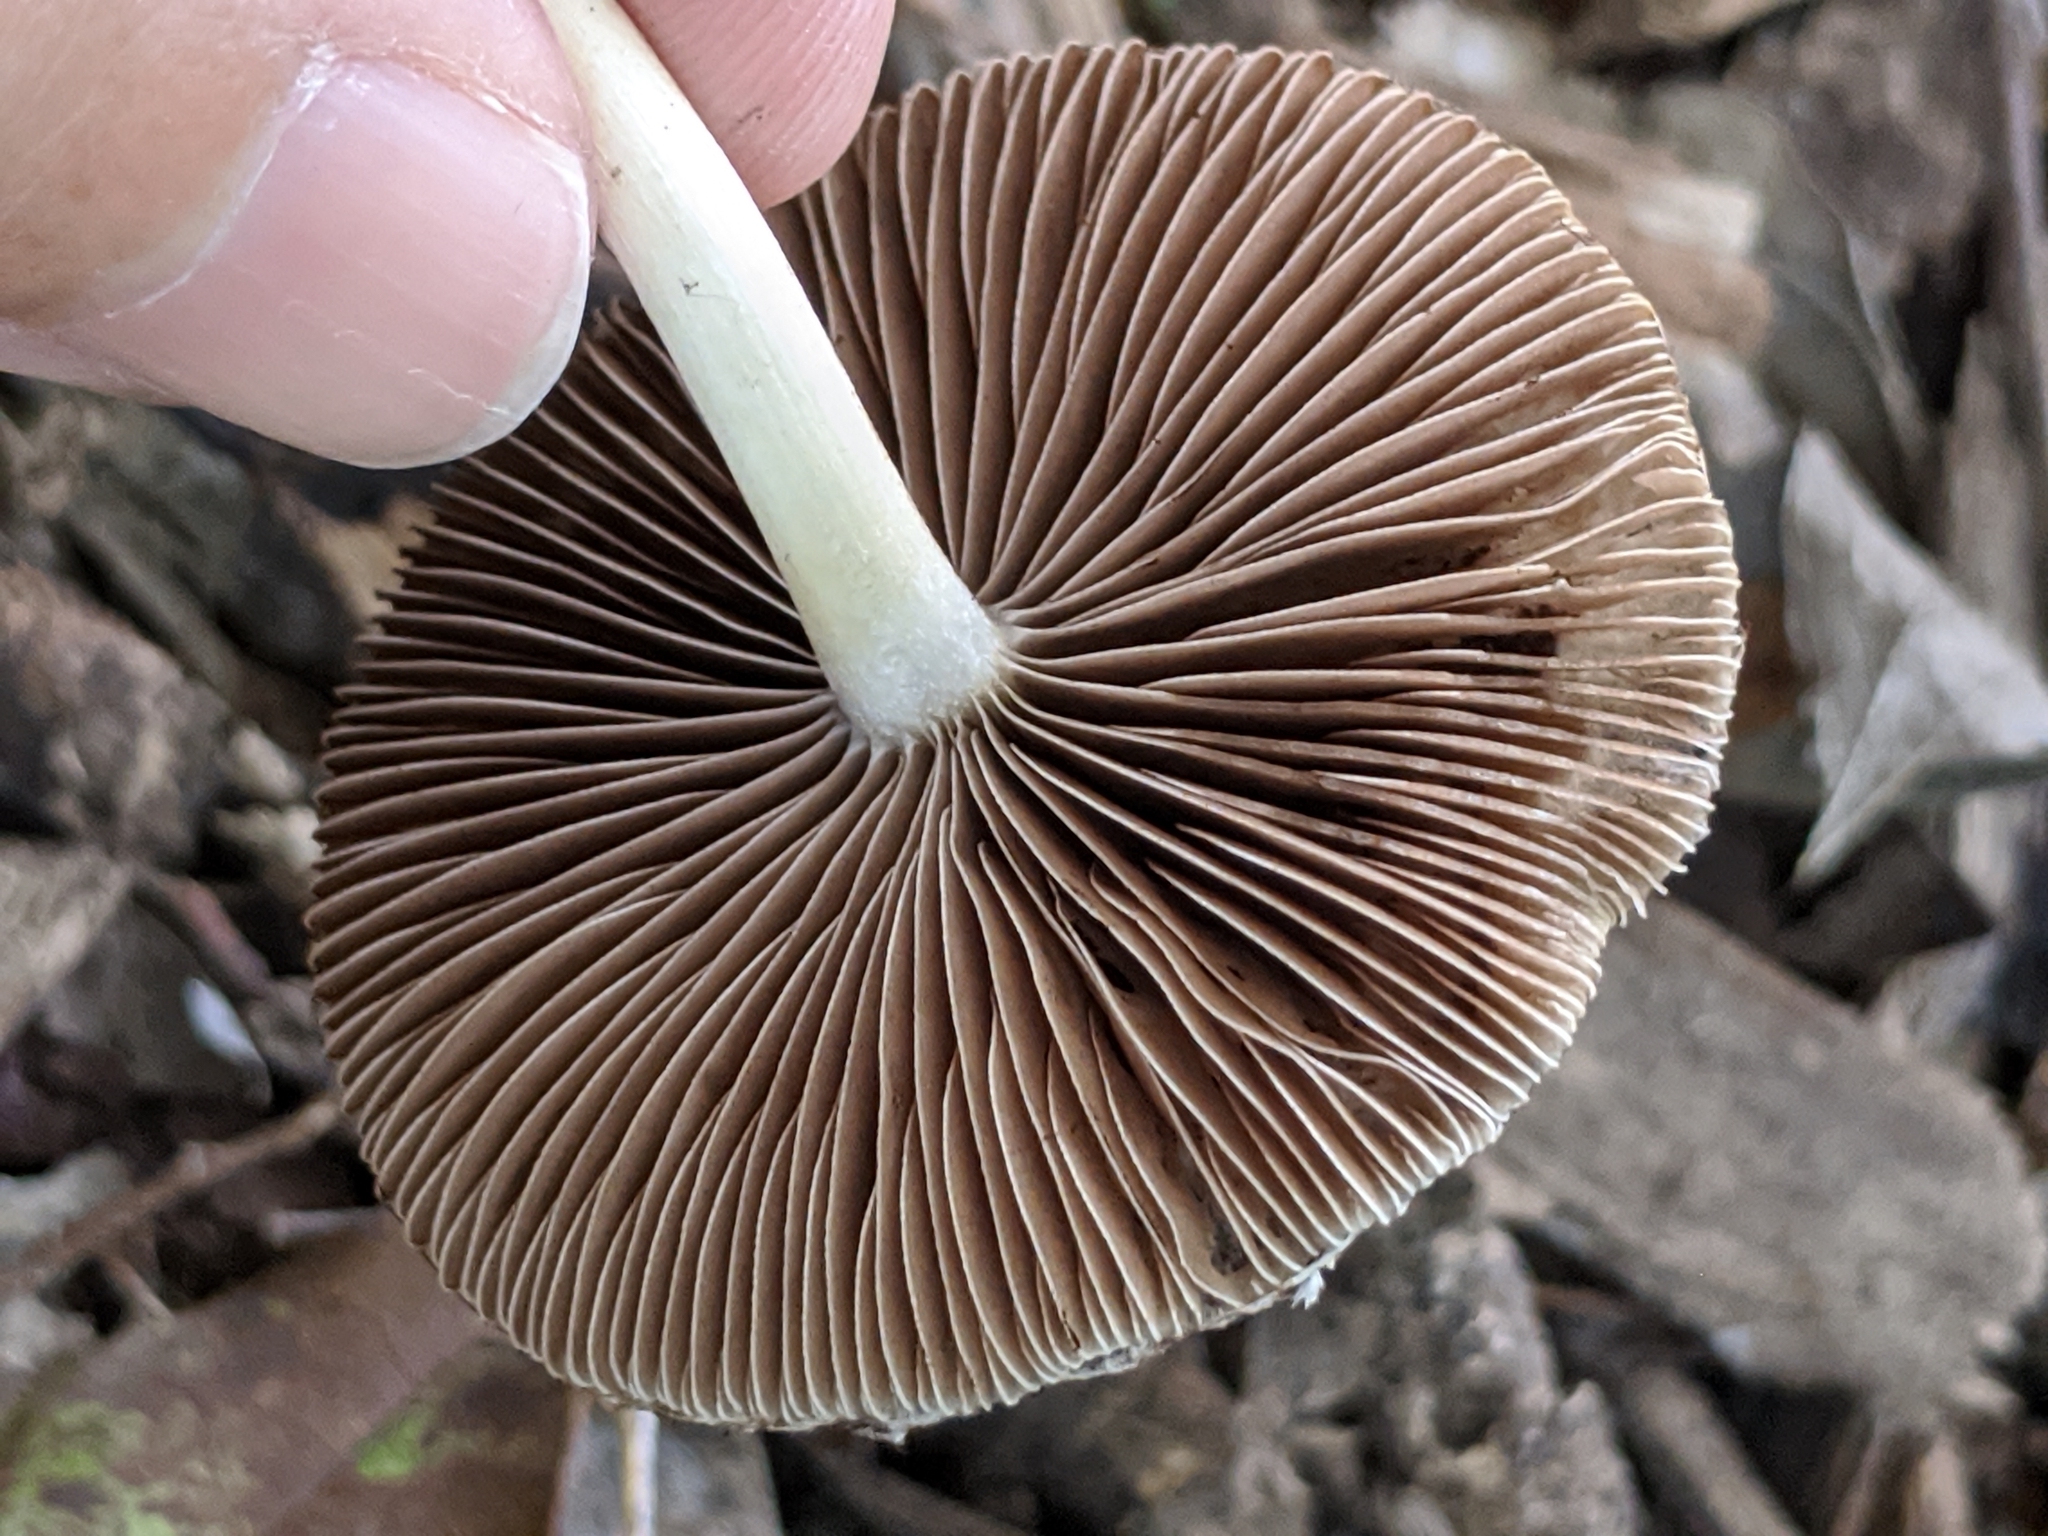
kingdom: Fungi
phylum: Basidiomycota
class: Agaricomycetes
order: Agaricales
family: Psathyrellaceae
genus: Candolleomyces
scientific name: Candolleomyces candolleanus
